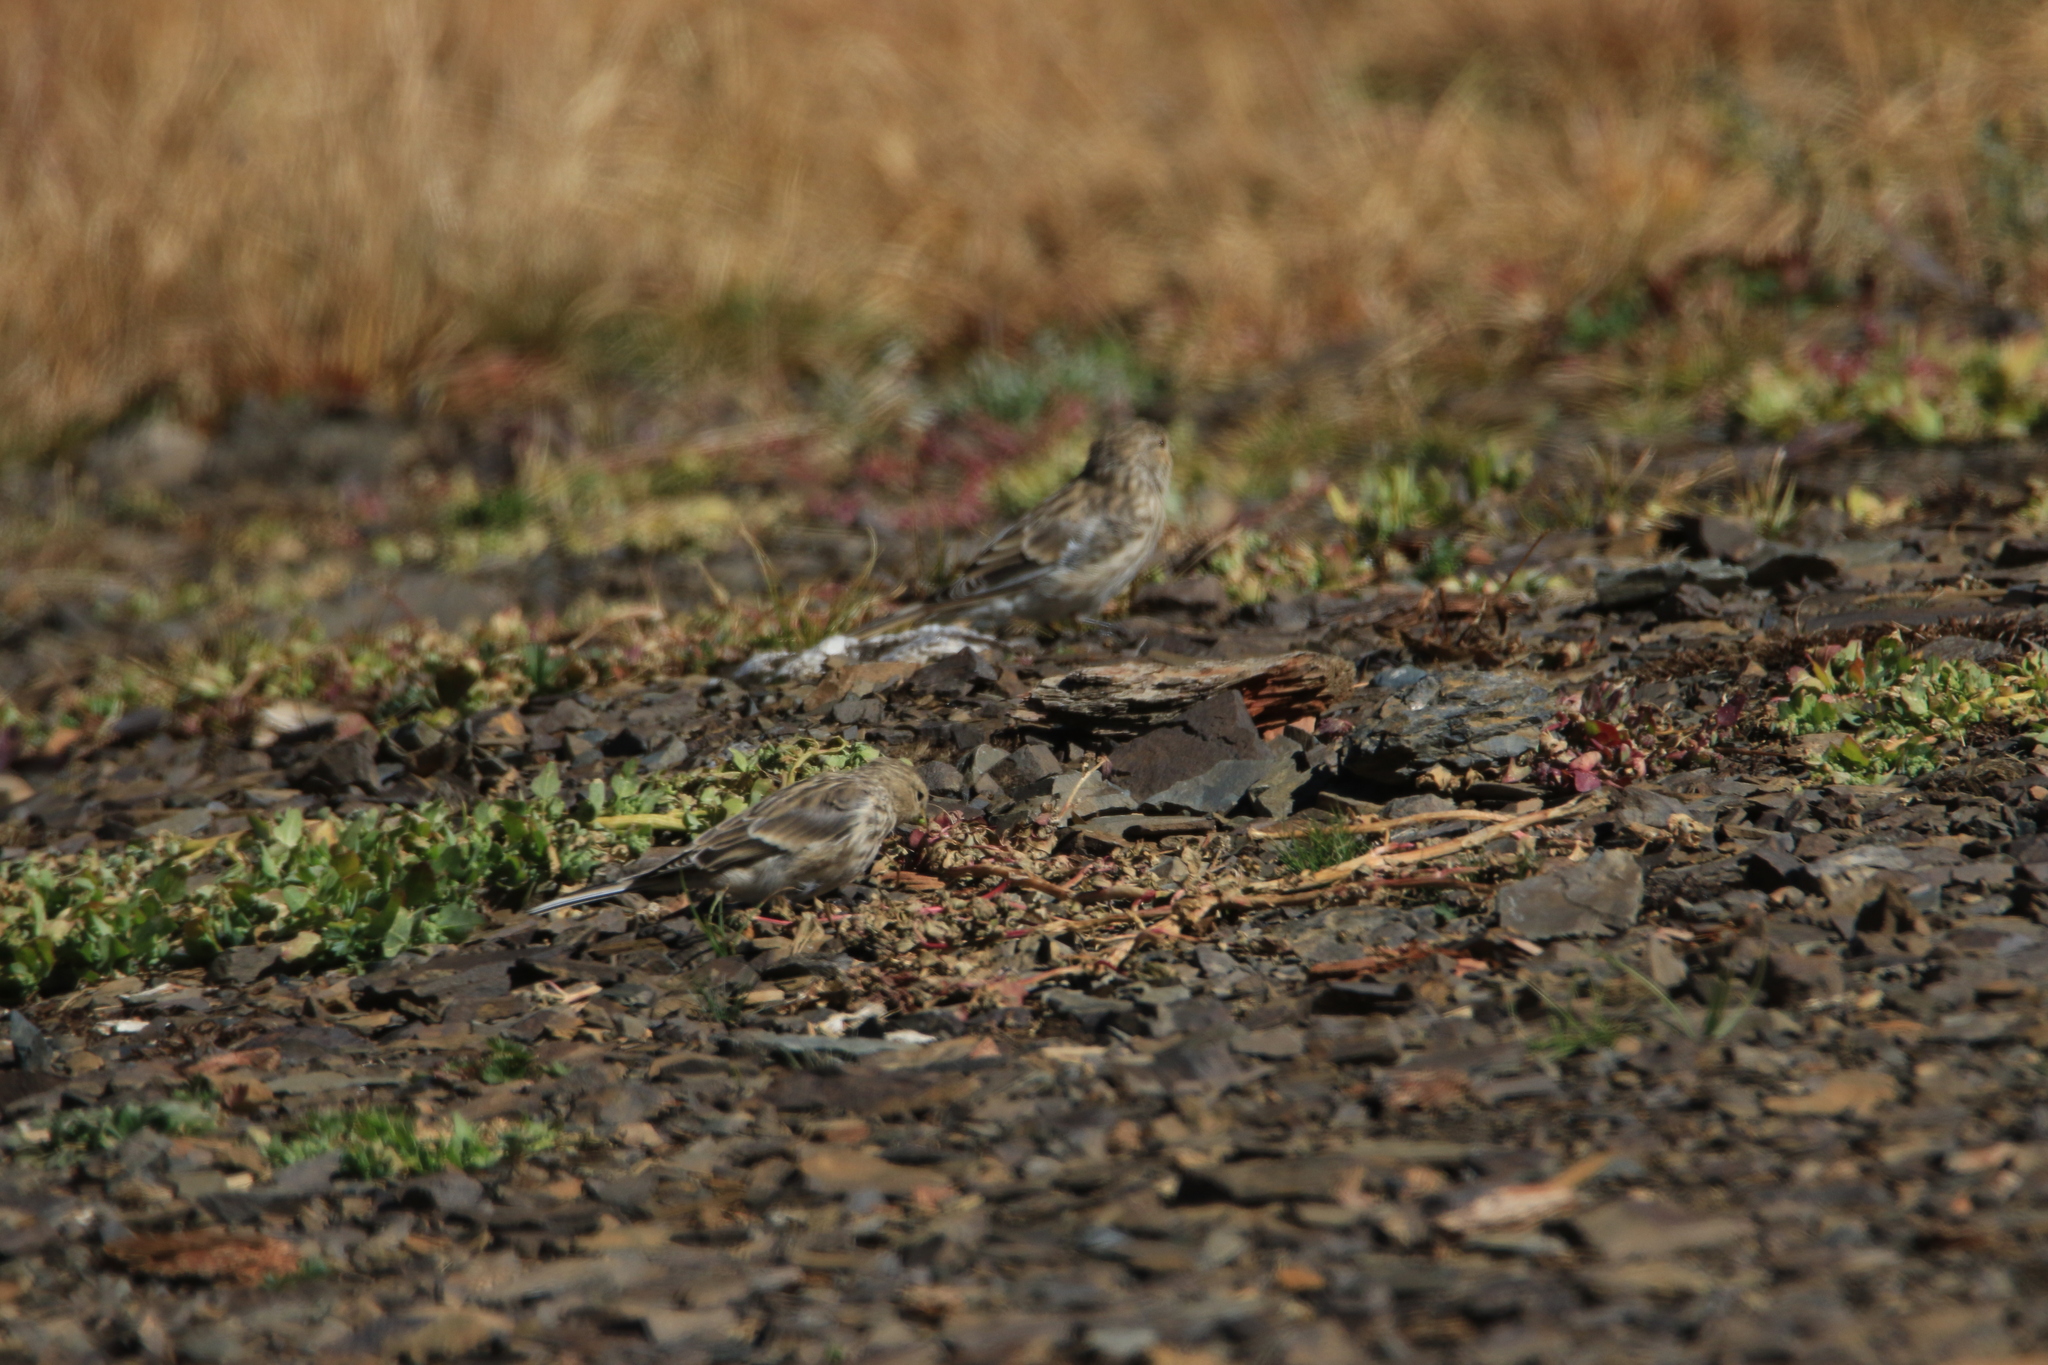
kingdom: Animalia
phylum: Chordata
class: Aves
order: Passeriformes
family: Fringillidae
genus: Linaria
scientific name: Linaria flavirostris
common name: Twite
